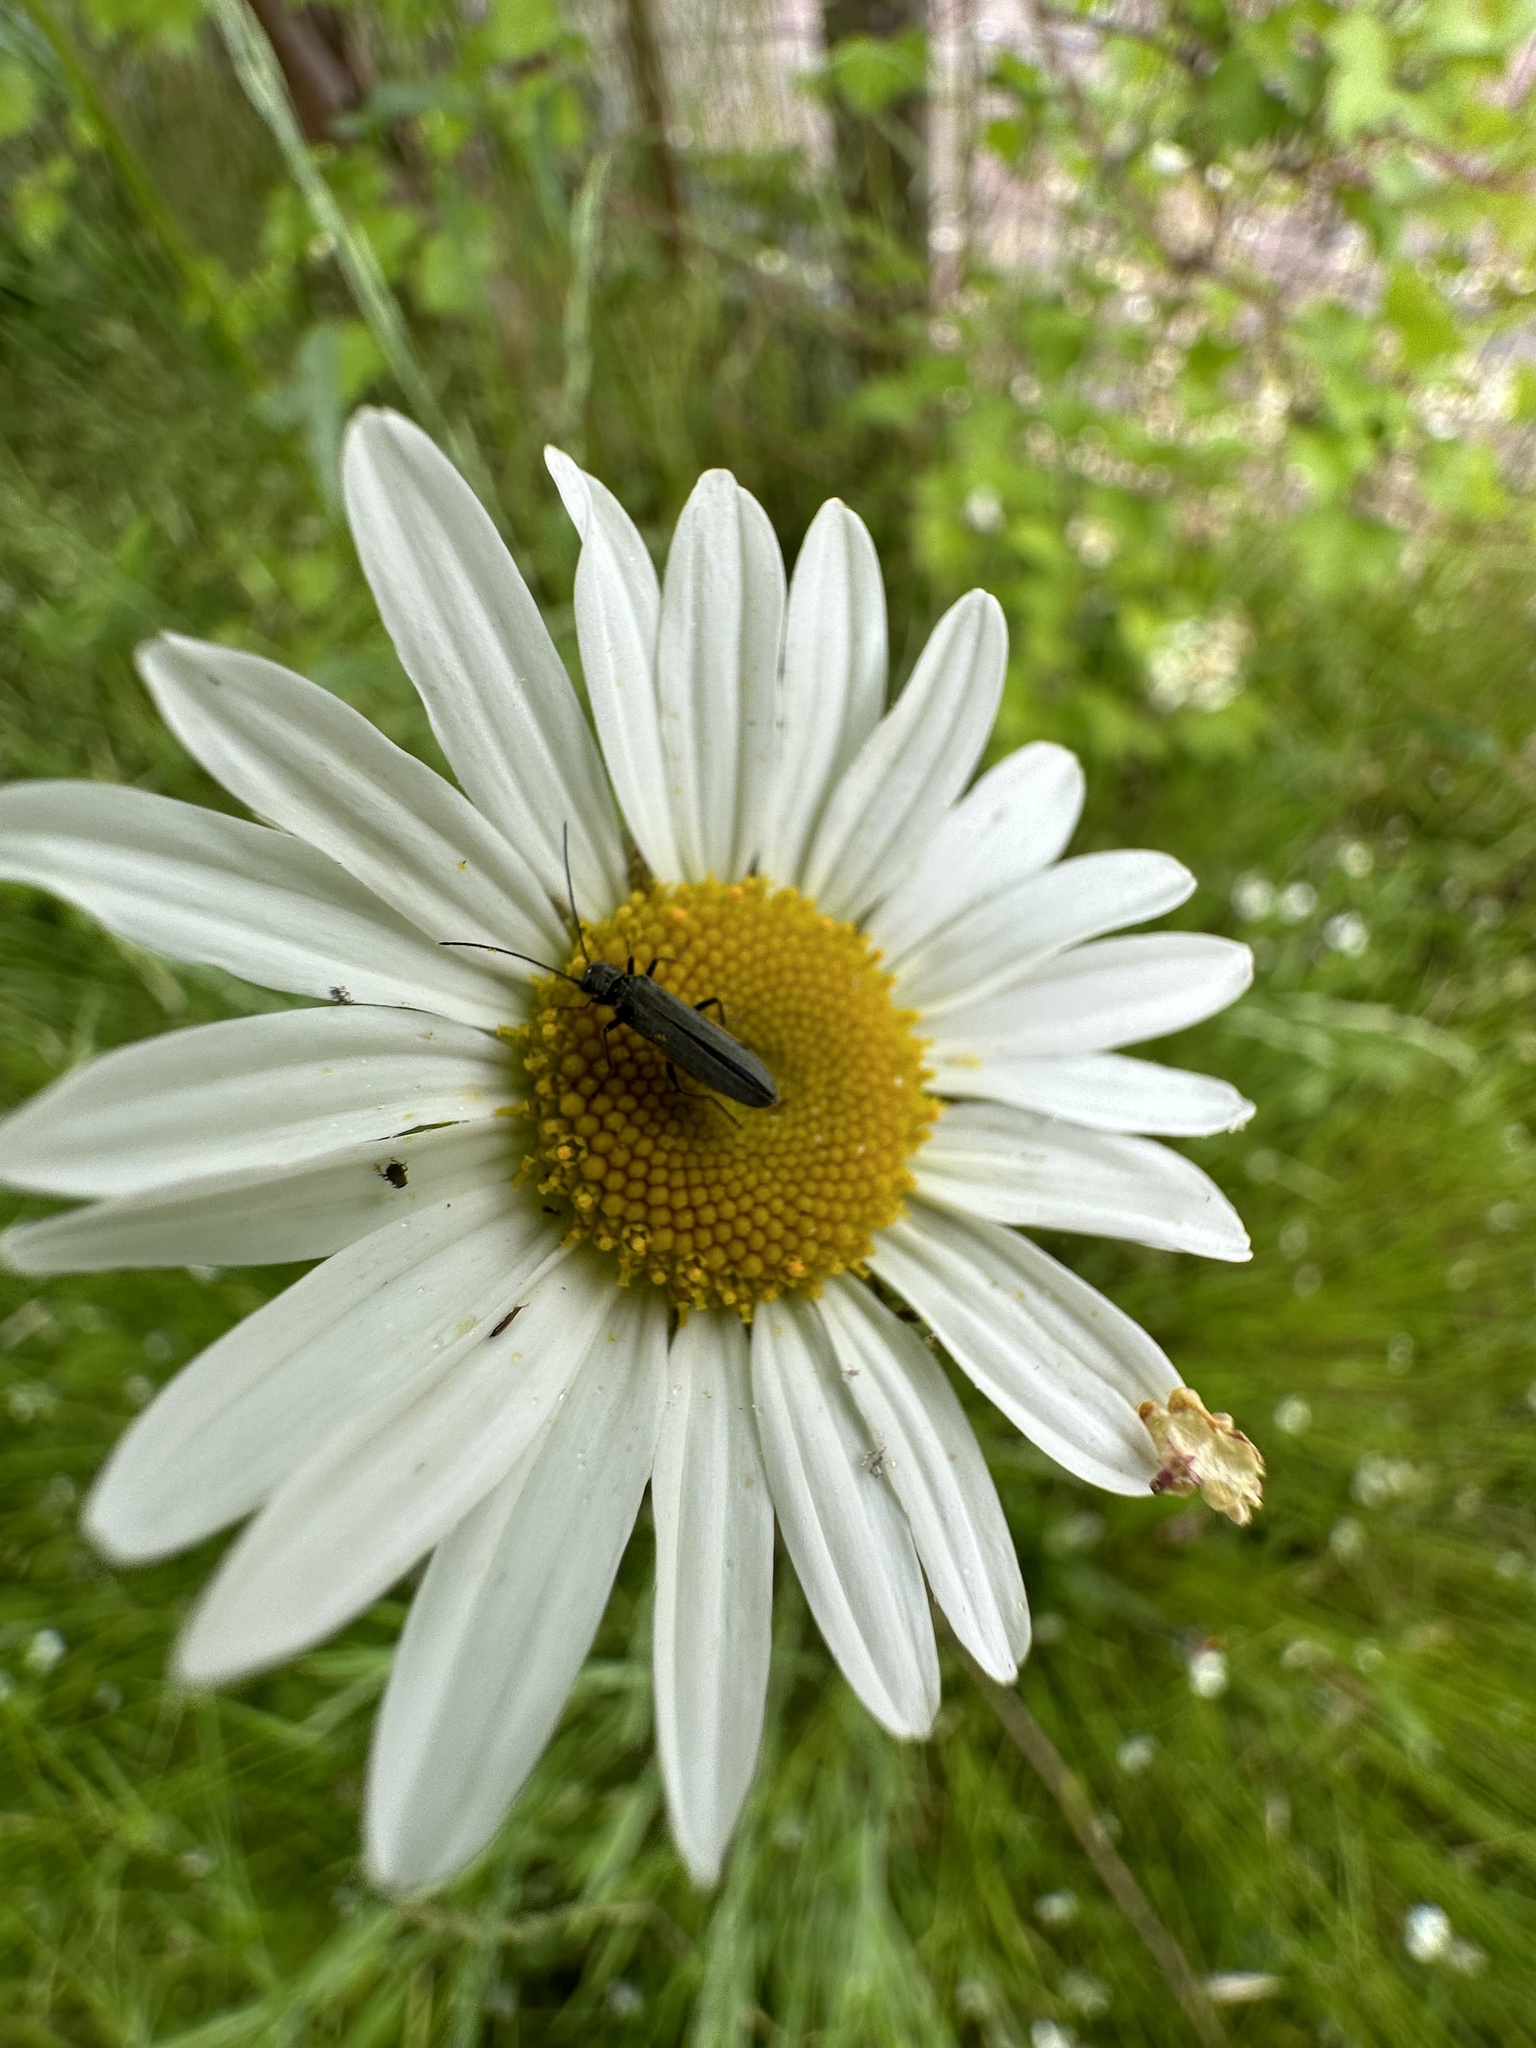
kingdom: Plantae
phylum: Tracheophyta
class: Magnoliopsida
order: Asterales
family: Asteraceae
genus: Leucanthemum
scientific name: Leucanthemum vulgare
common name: Oxeye daisy
